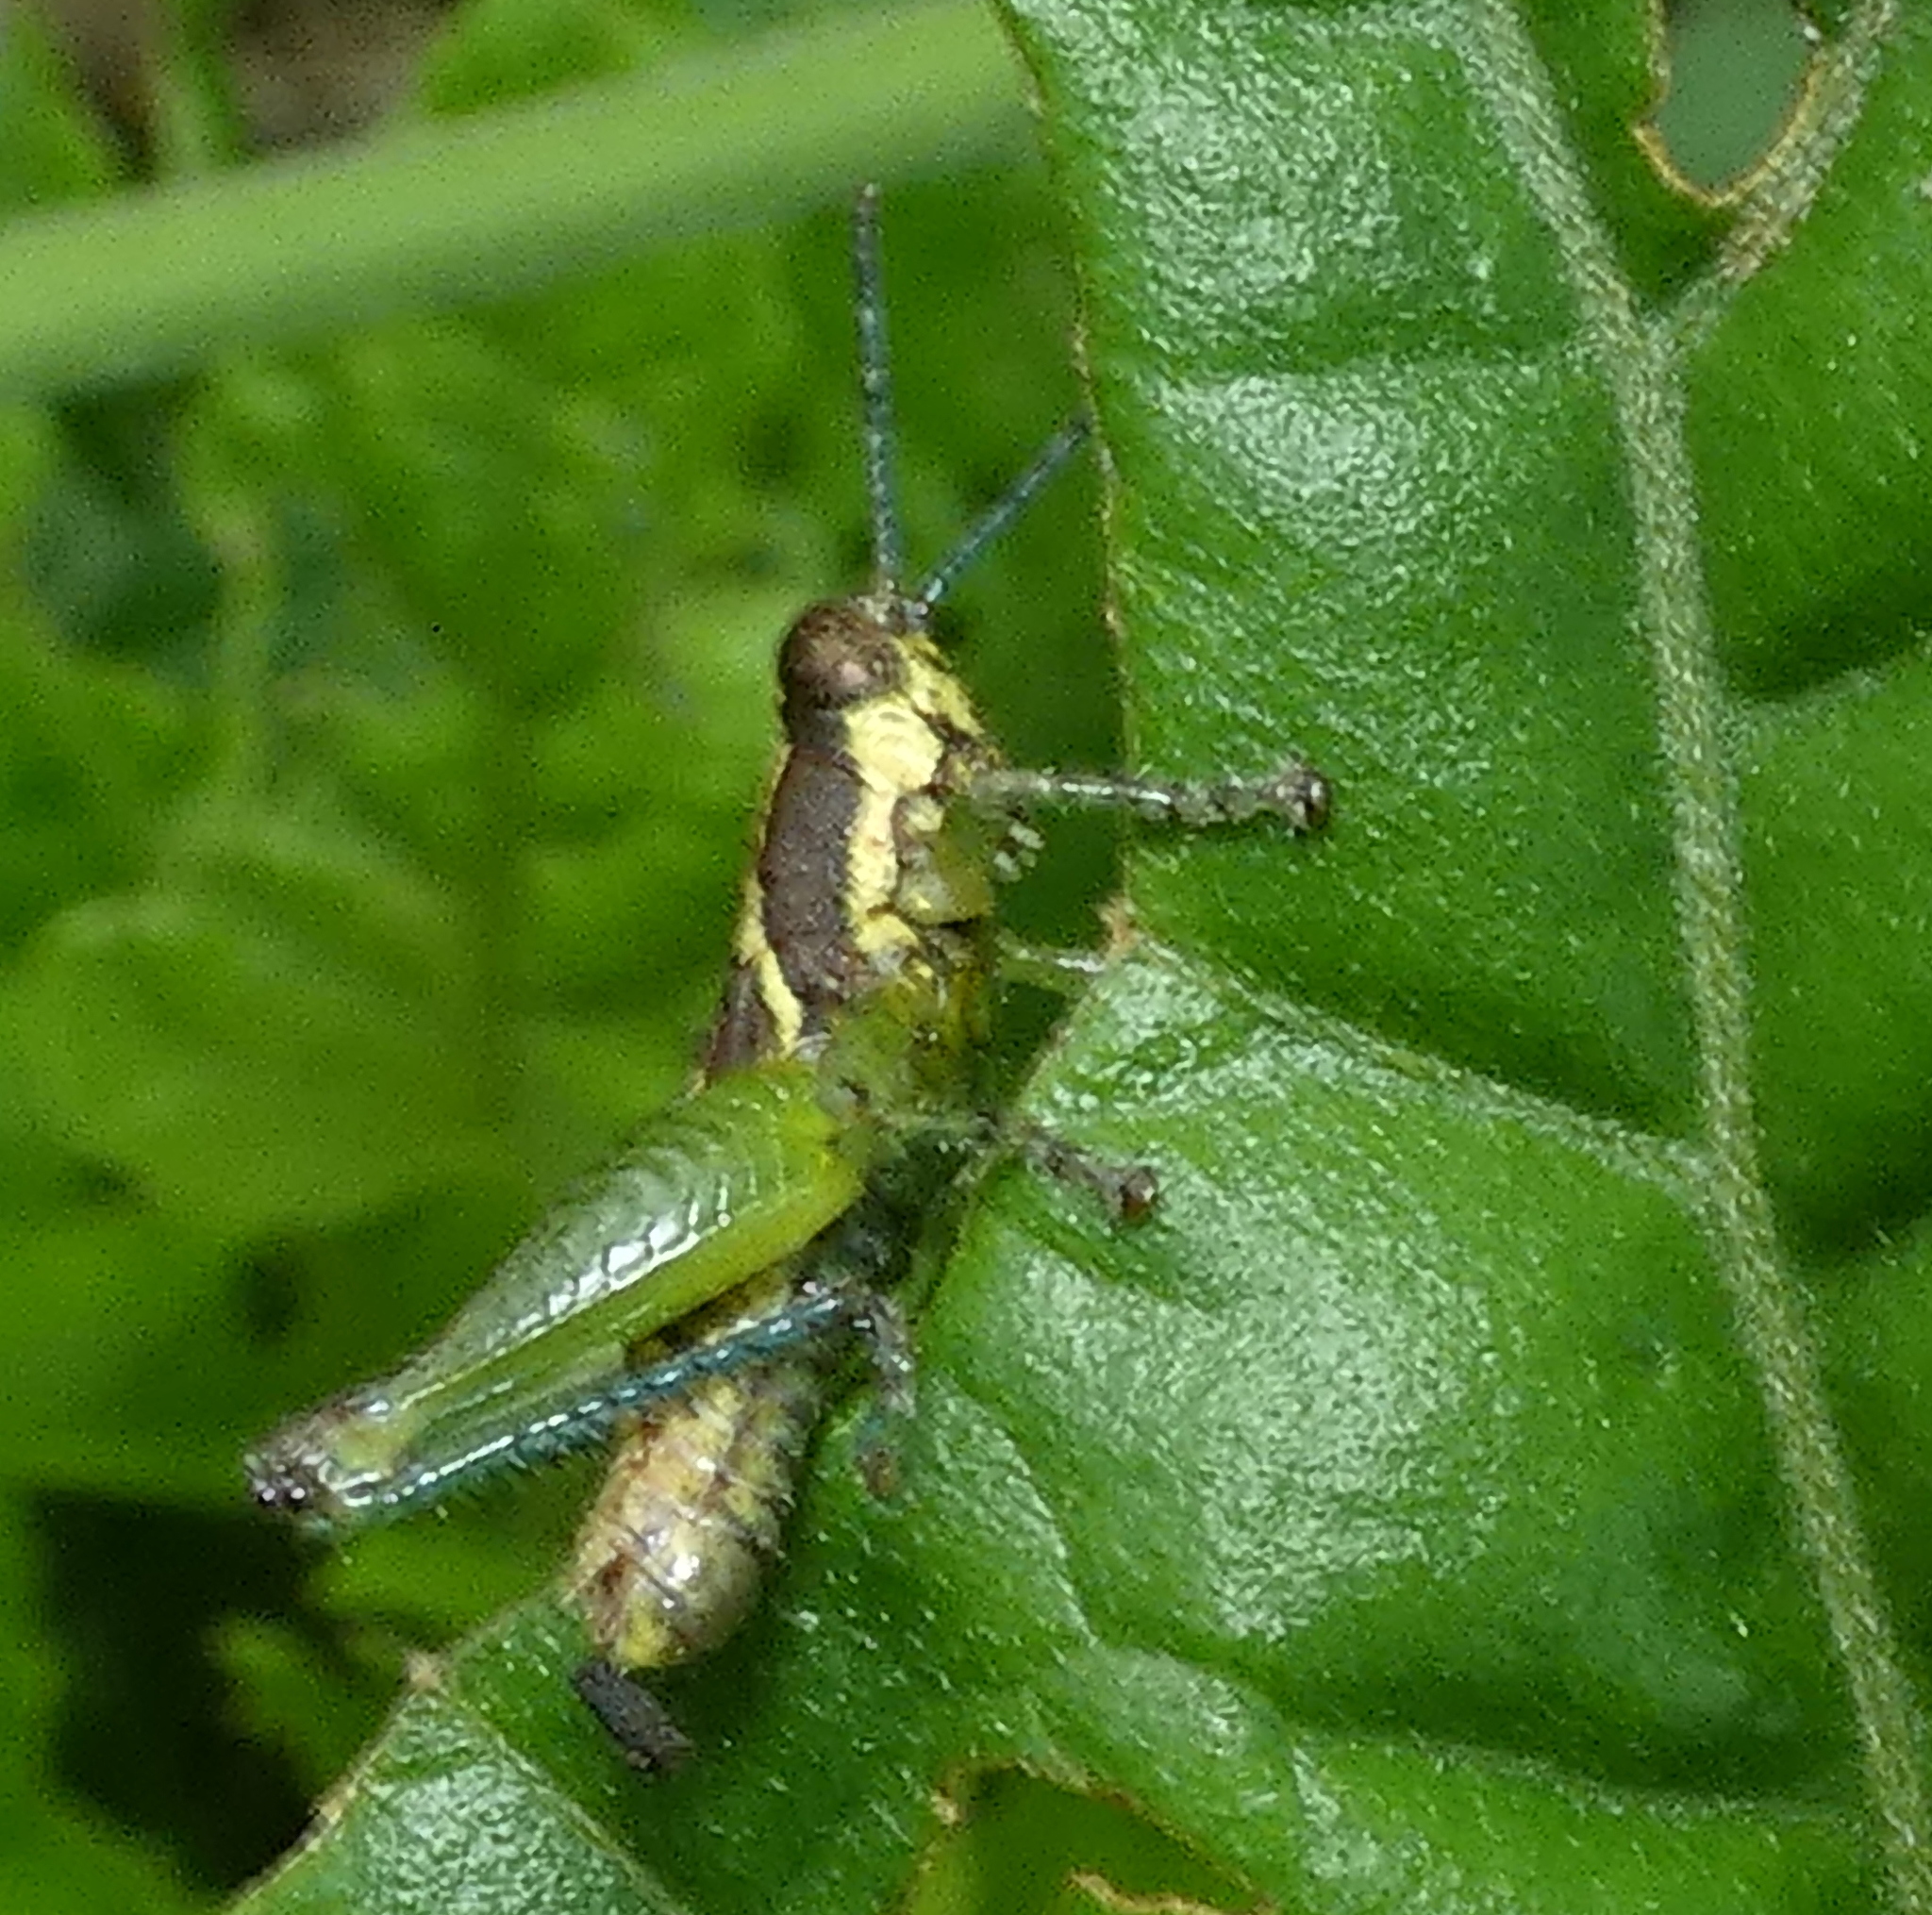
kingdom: Animalia
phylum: Arthropoda
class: Insecta
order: Orthoptera
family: Acrididae
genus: Roppacris
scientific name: Roppacris longicerca
